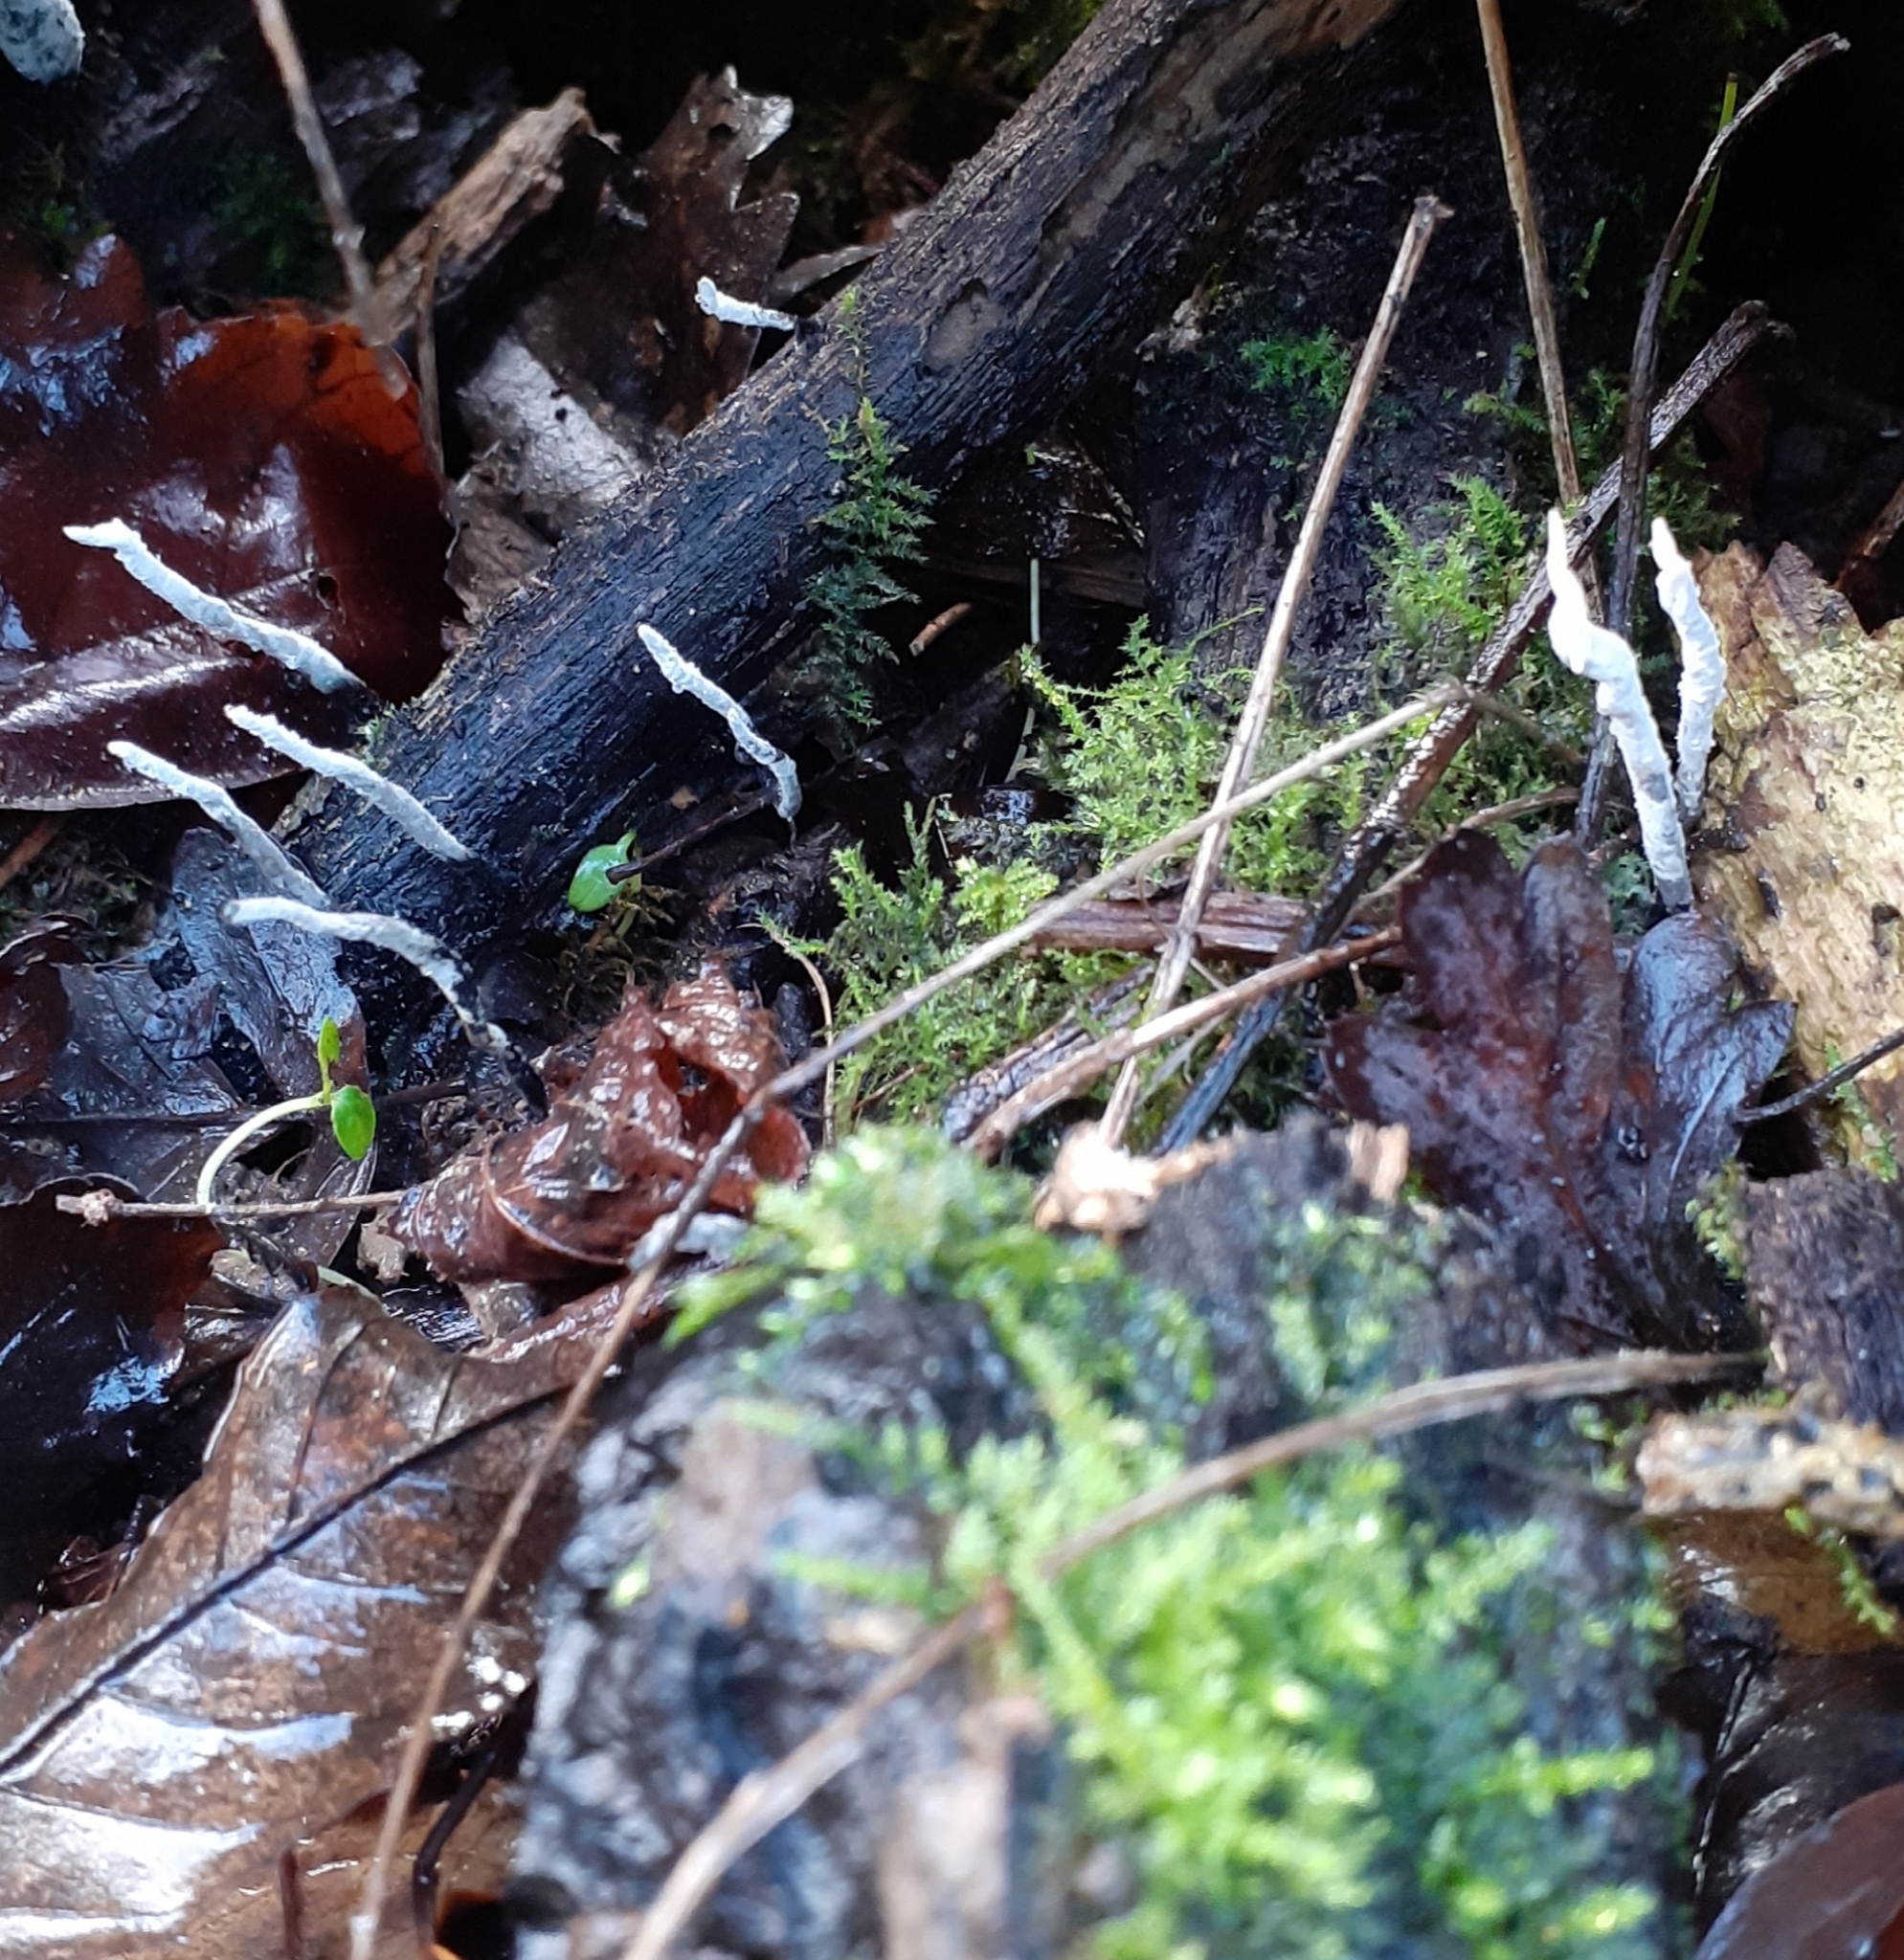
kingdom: Fungi
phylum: Ascomycota
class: Sordariomycetes
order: Xylariales
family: Xylariaceae
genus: Xylaria
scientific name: Xylaria hypoxylon
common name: Candle-snuff fungus
